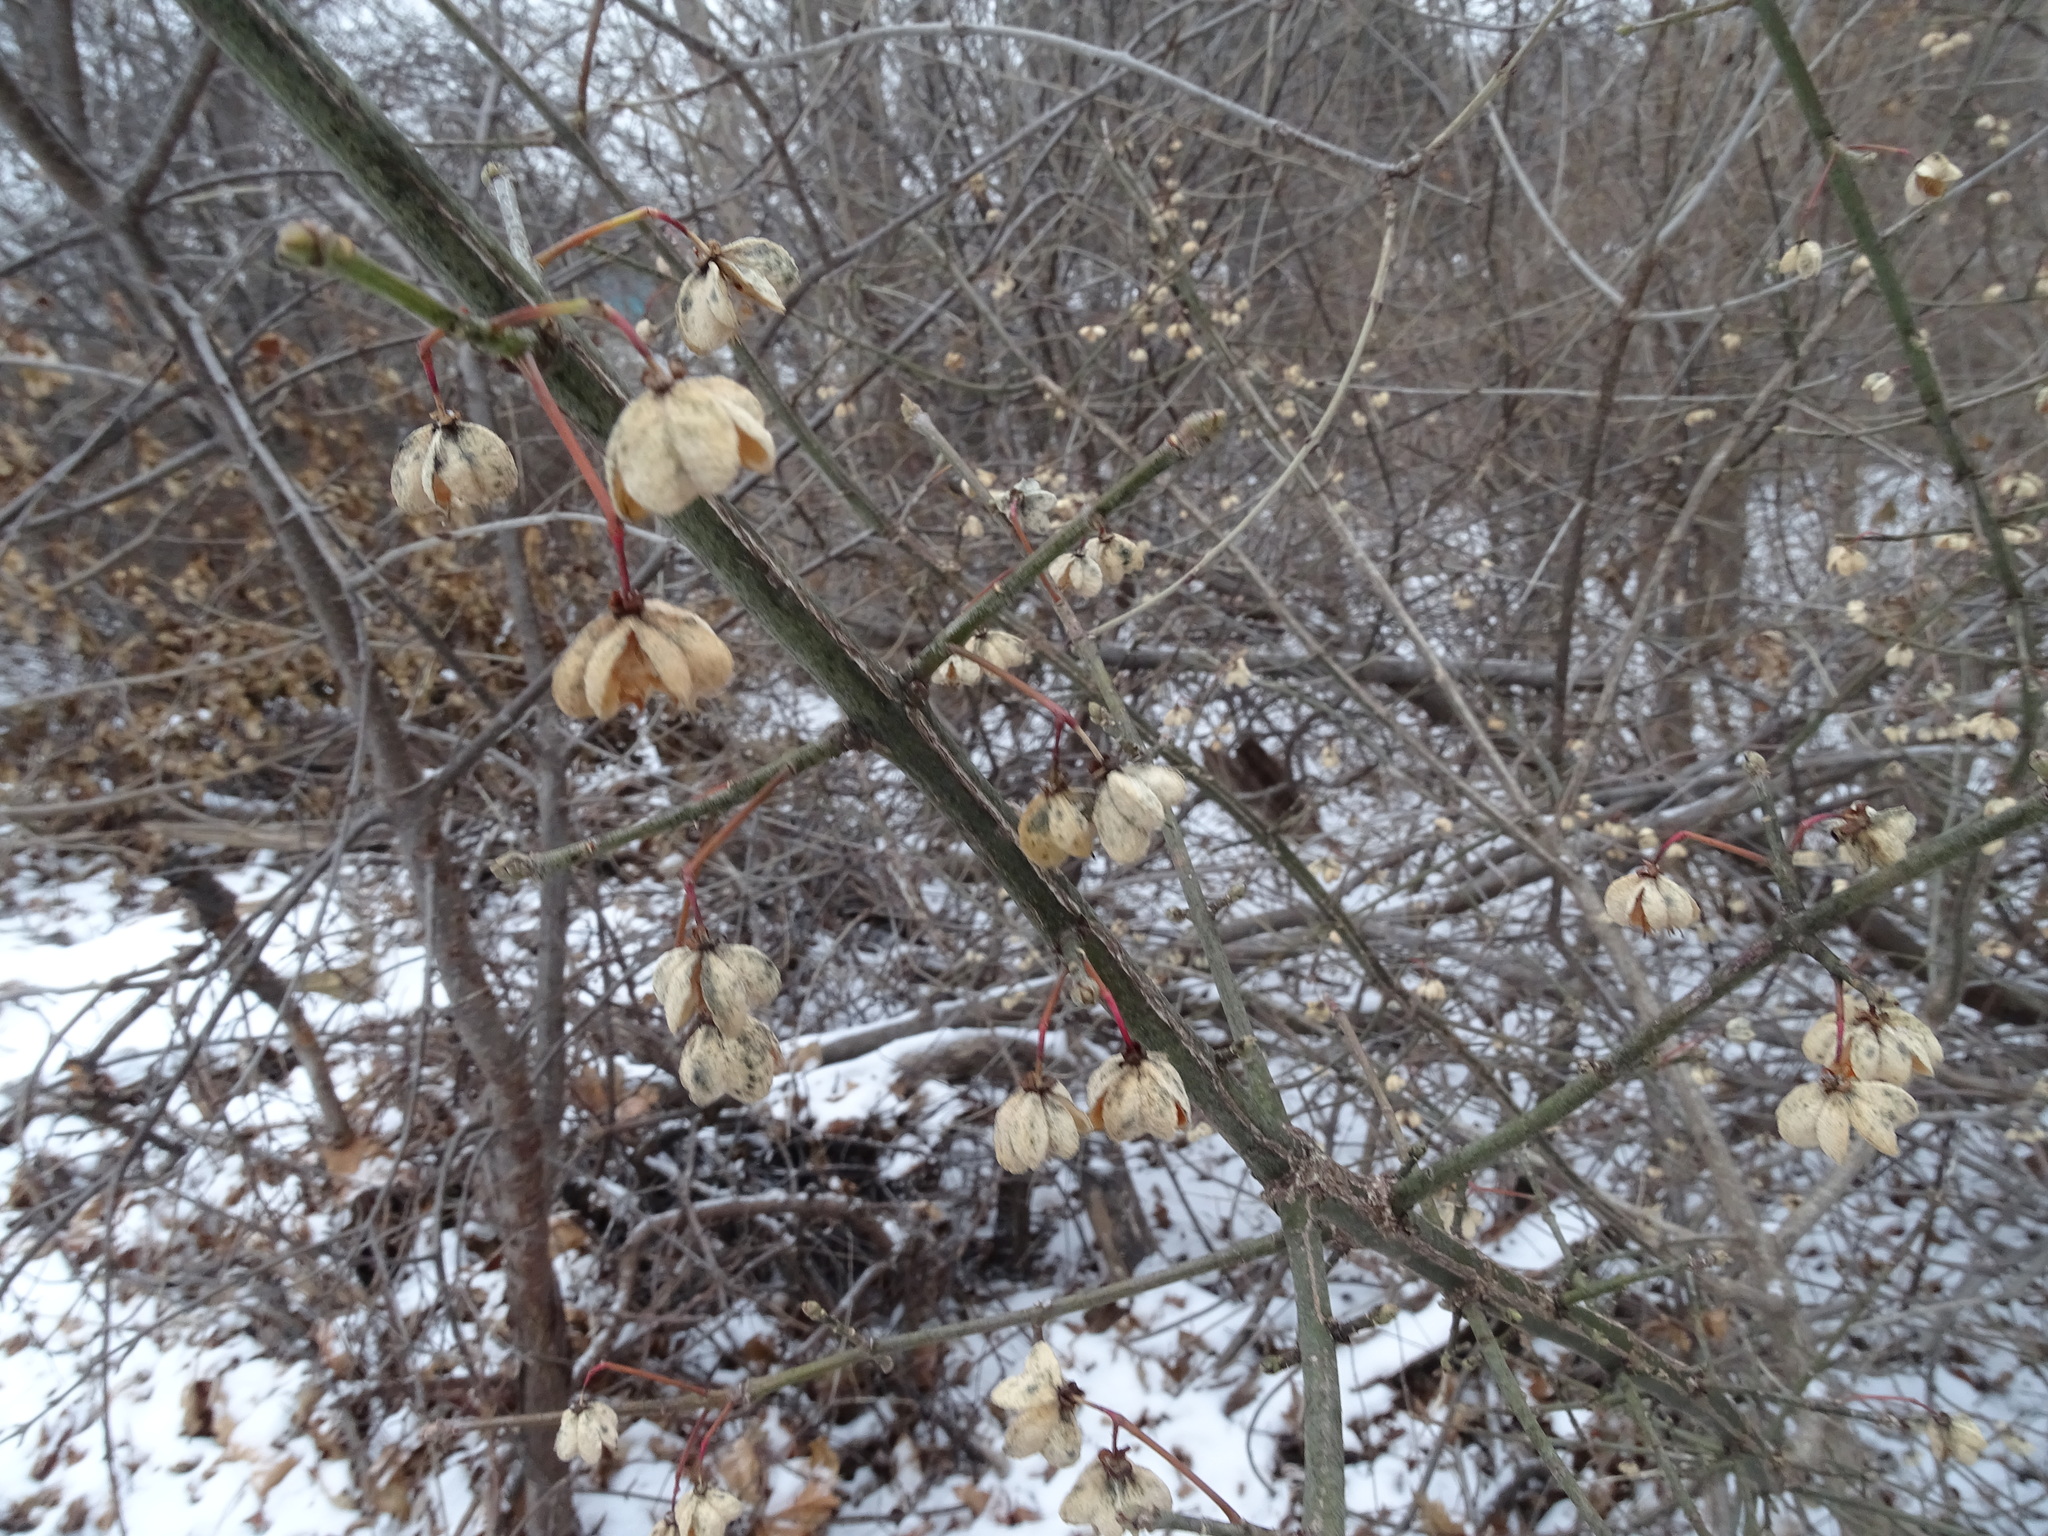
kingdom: Plantae
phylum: Tracheophyta
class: Magnoliopsida
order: Celastrales
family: Celastraceae
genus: Euonymus
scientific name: Euonymus europaeus
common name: Spindle
